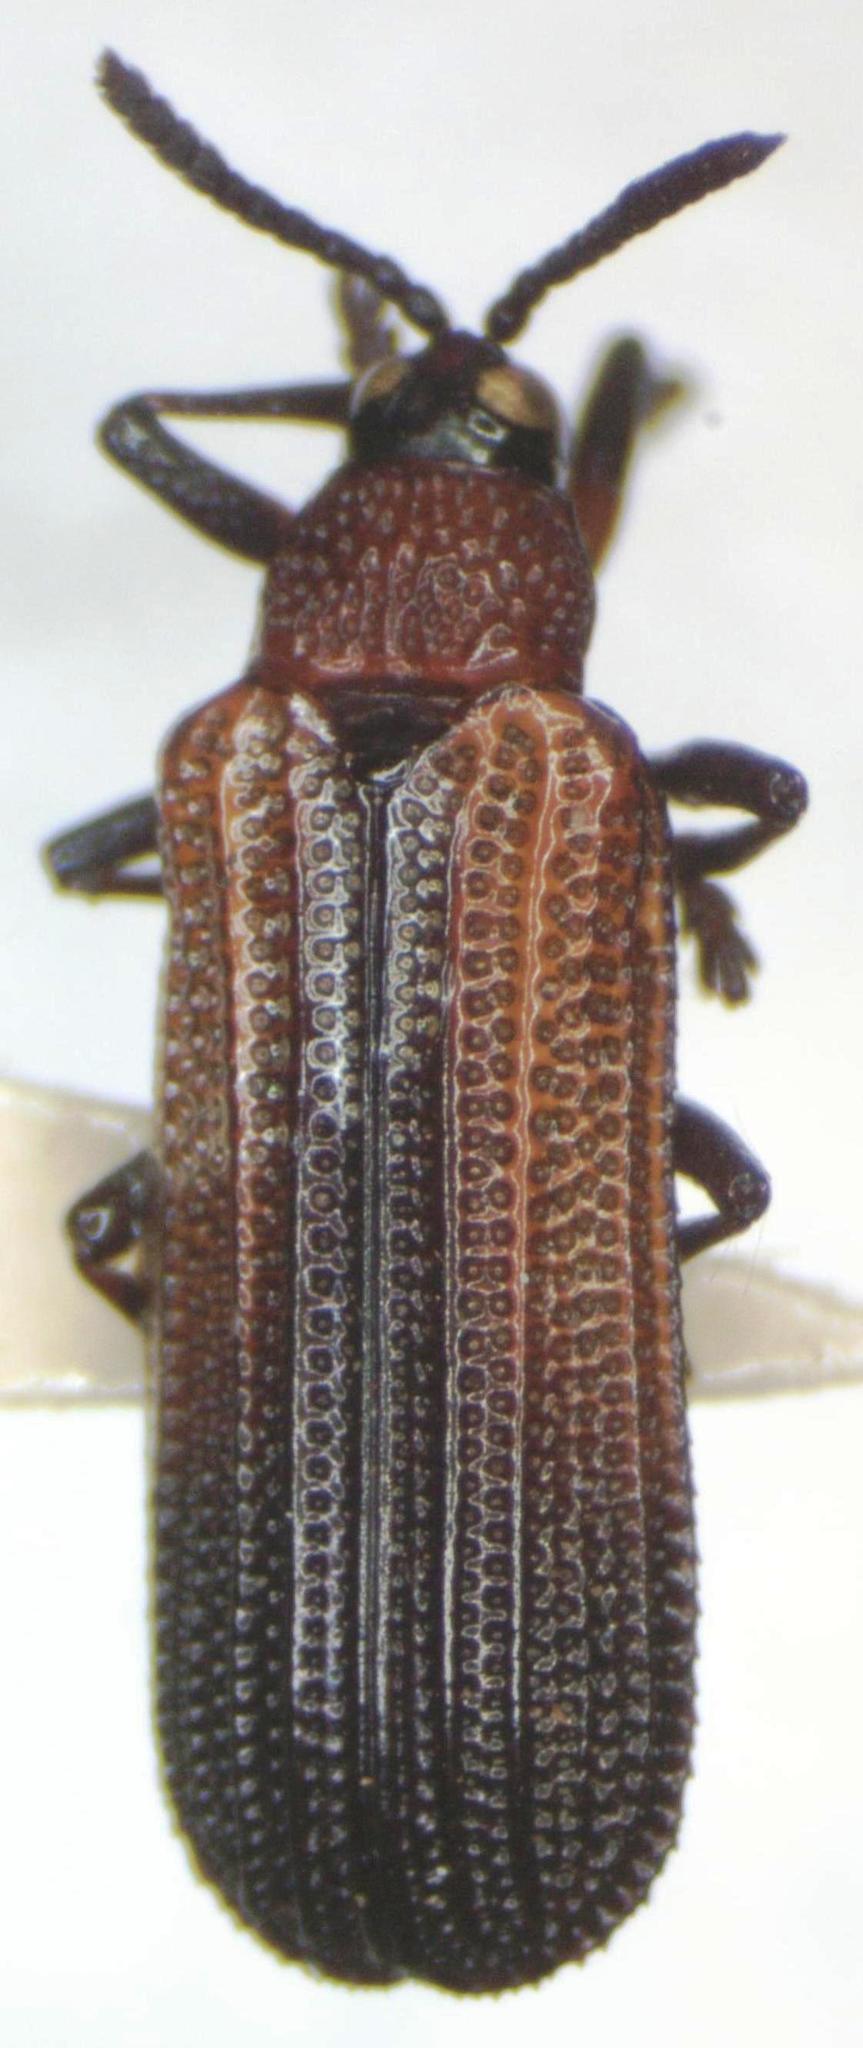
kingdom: Animalia
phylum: Arthropoda
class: Insecta
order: Coleoptera
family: Chrysomelidae
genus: Chalepus
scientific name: Chalepus similatus
